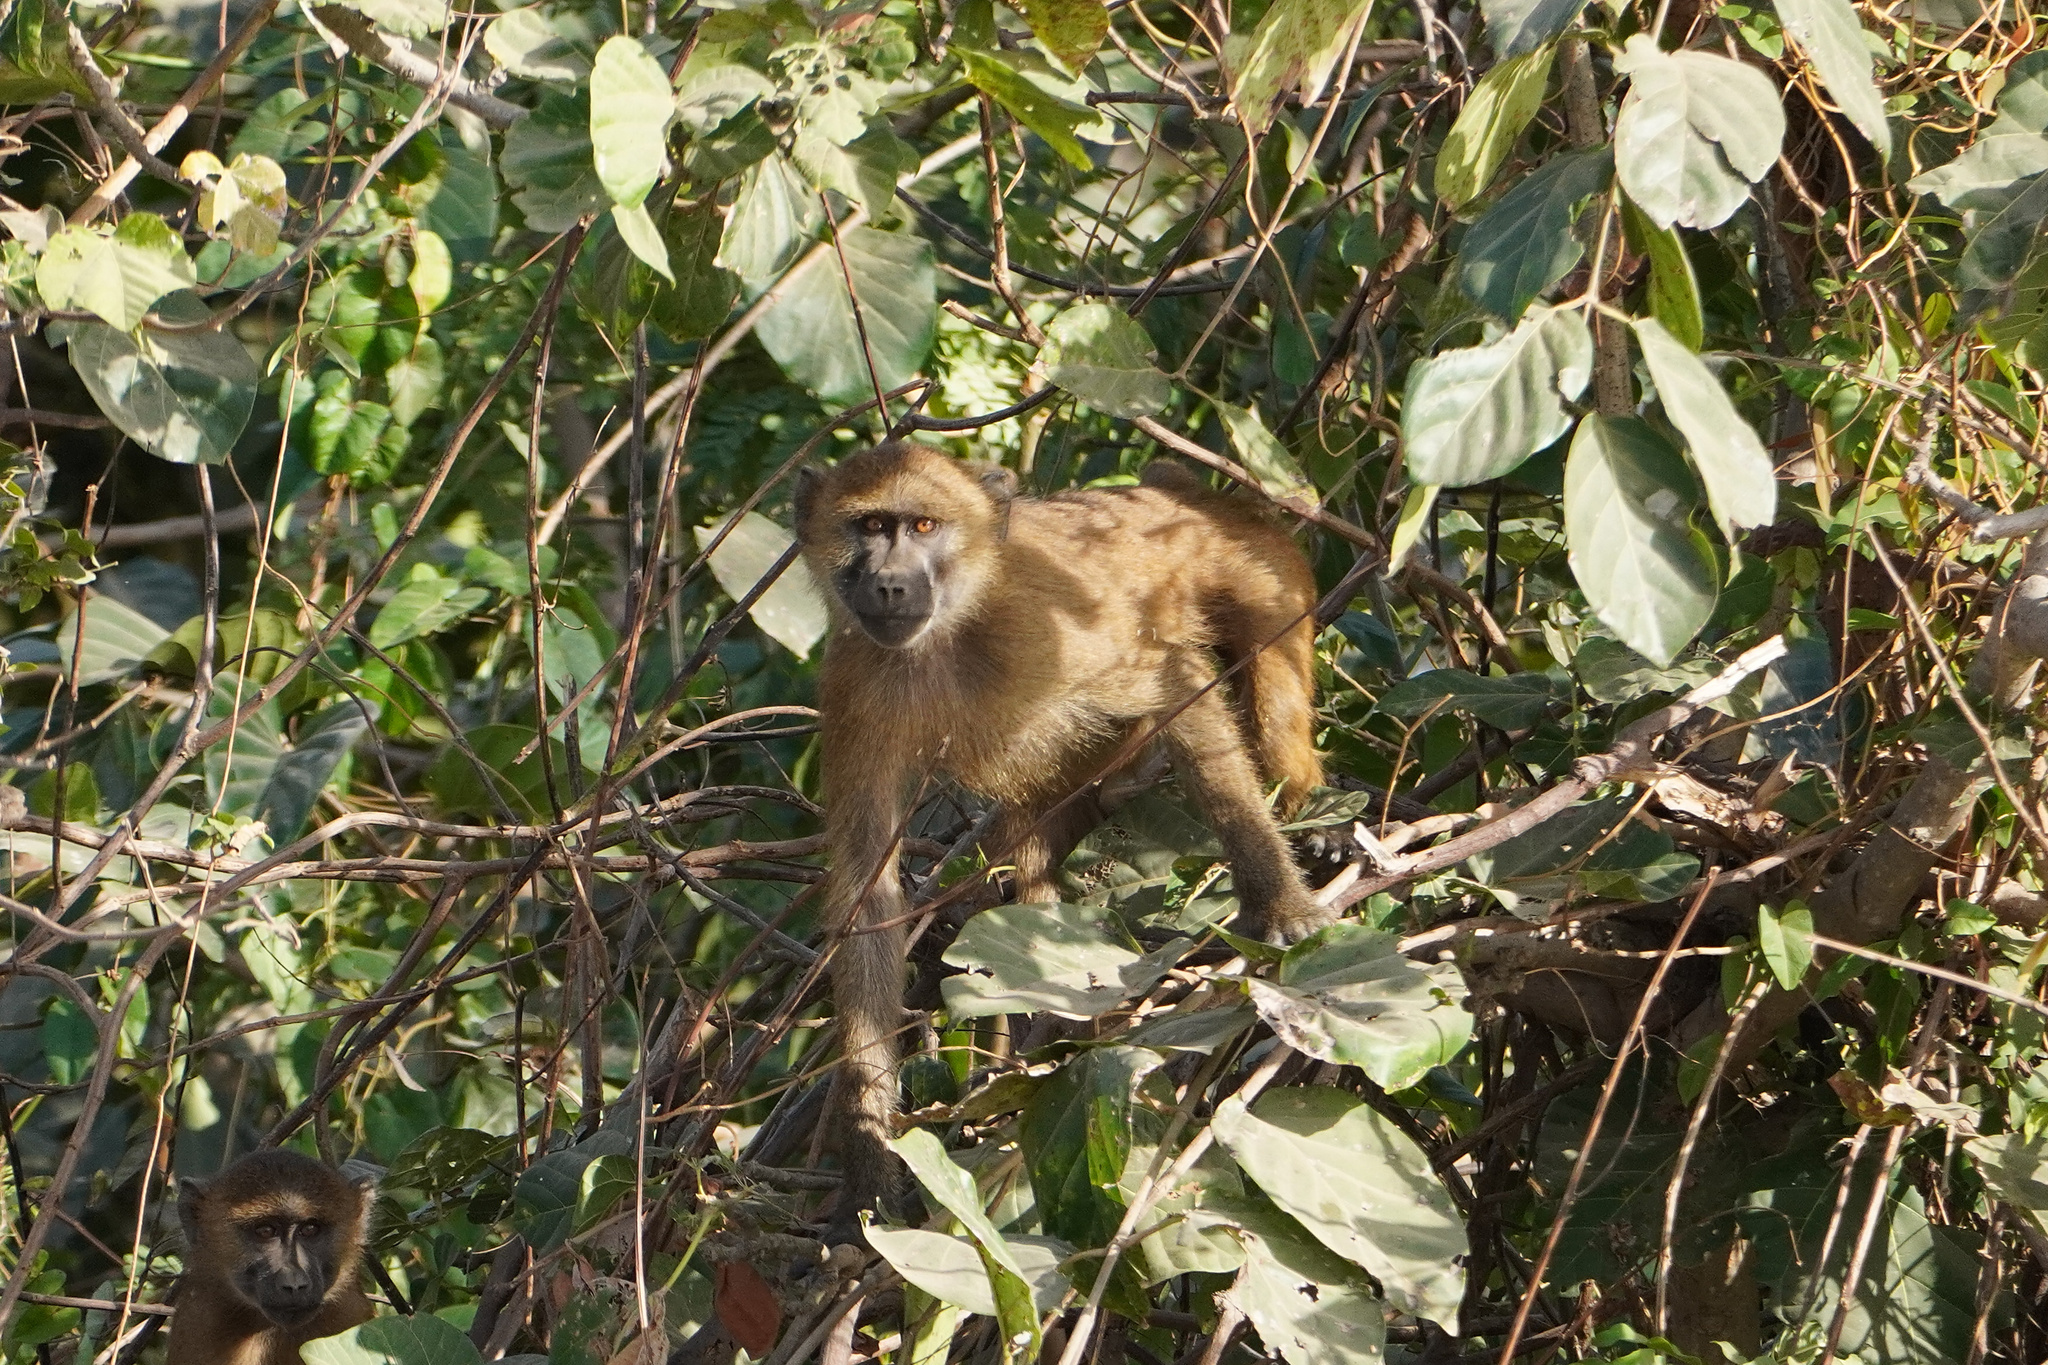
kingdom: Animalia
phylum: Chordata
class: Mammalia
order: Primates
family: Cercopithecidae
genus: Papio
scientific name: Papio papio
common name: Guinea baboon
